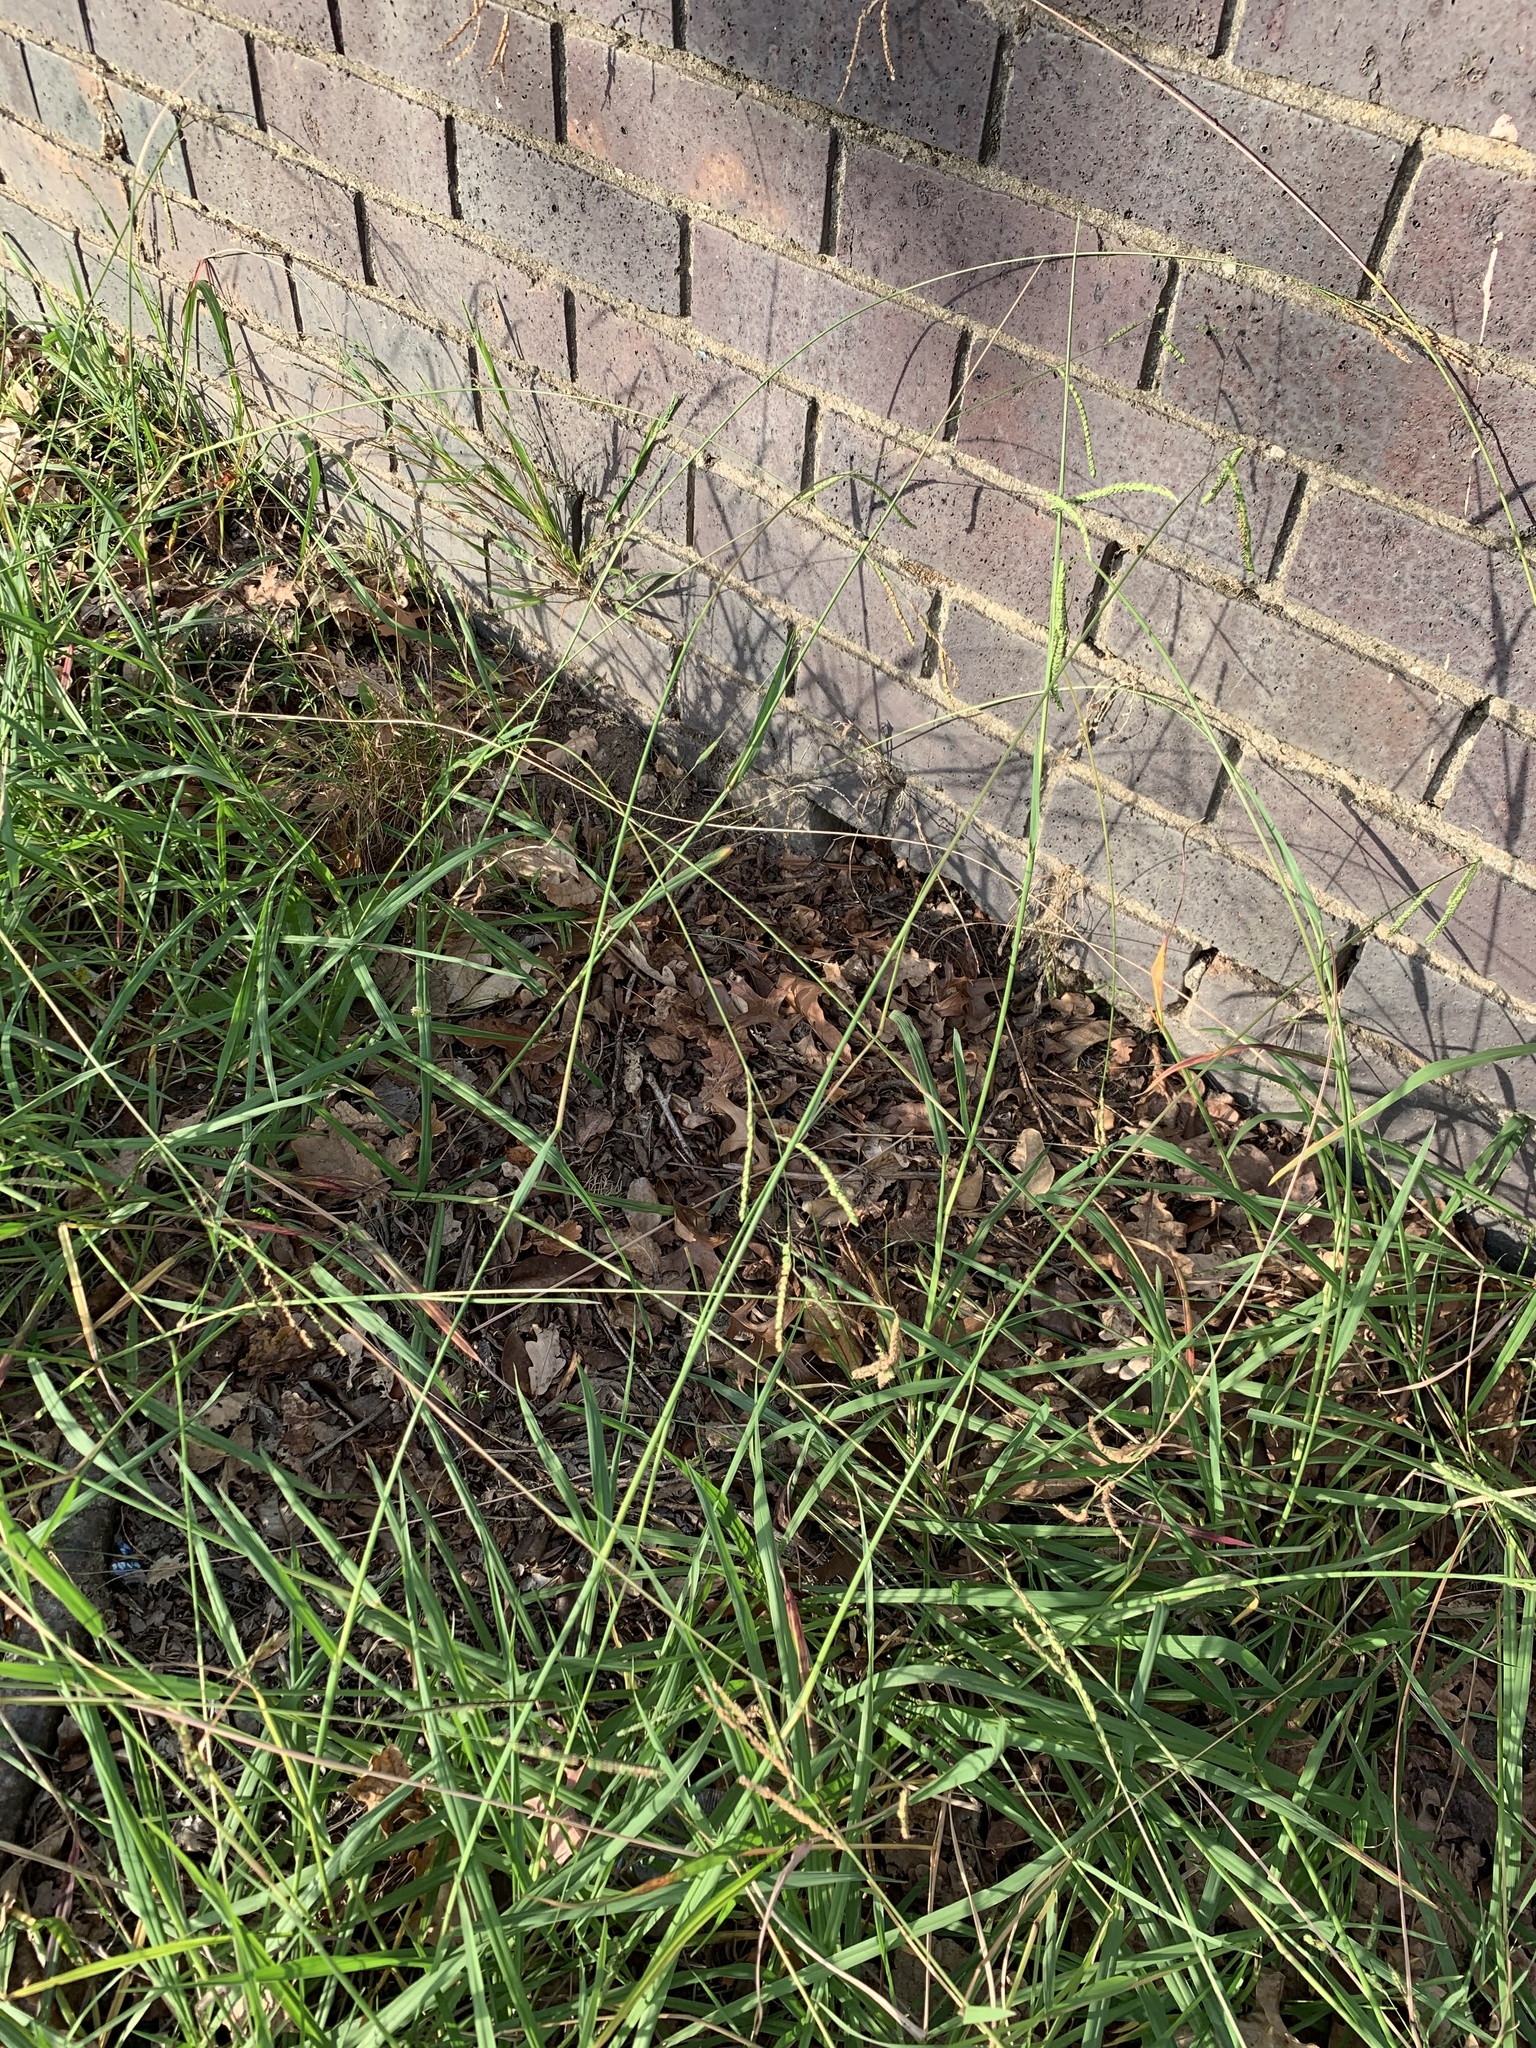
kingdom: Plantae
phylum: Tracheophyta
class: Liliopsida
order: Poales
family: Poaceae
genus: Paspalum
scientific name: Paspalum dilatatum
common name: Dallisgrass
